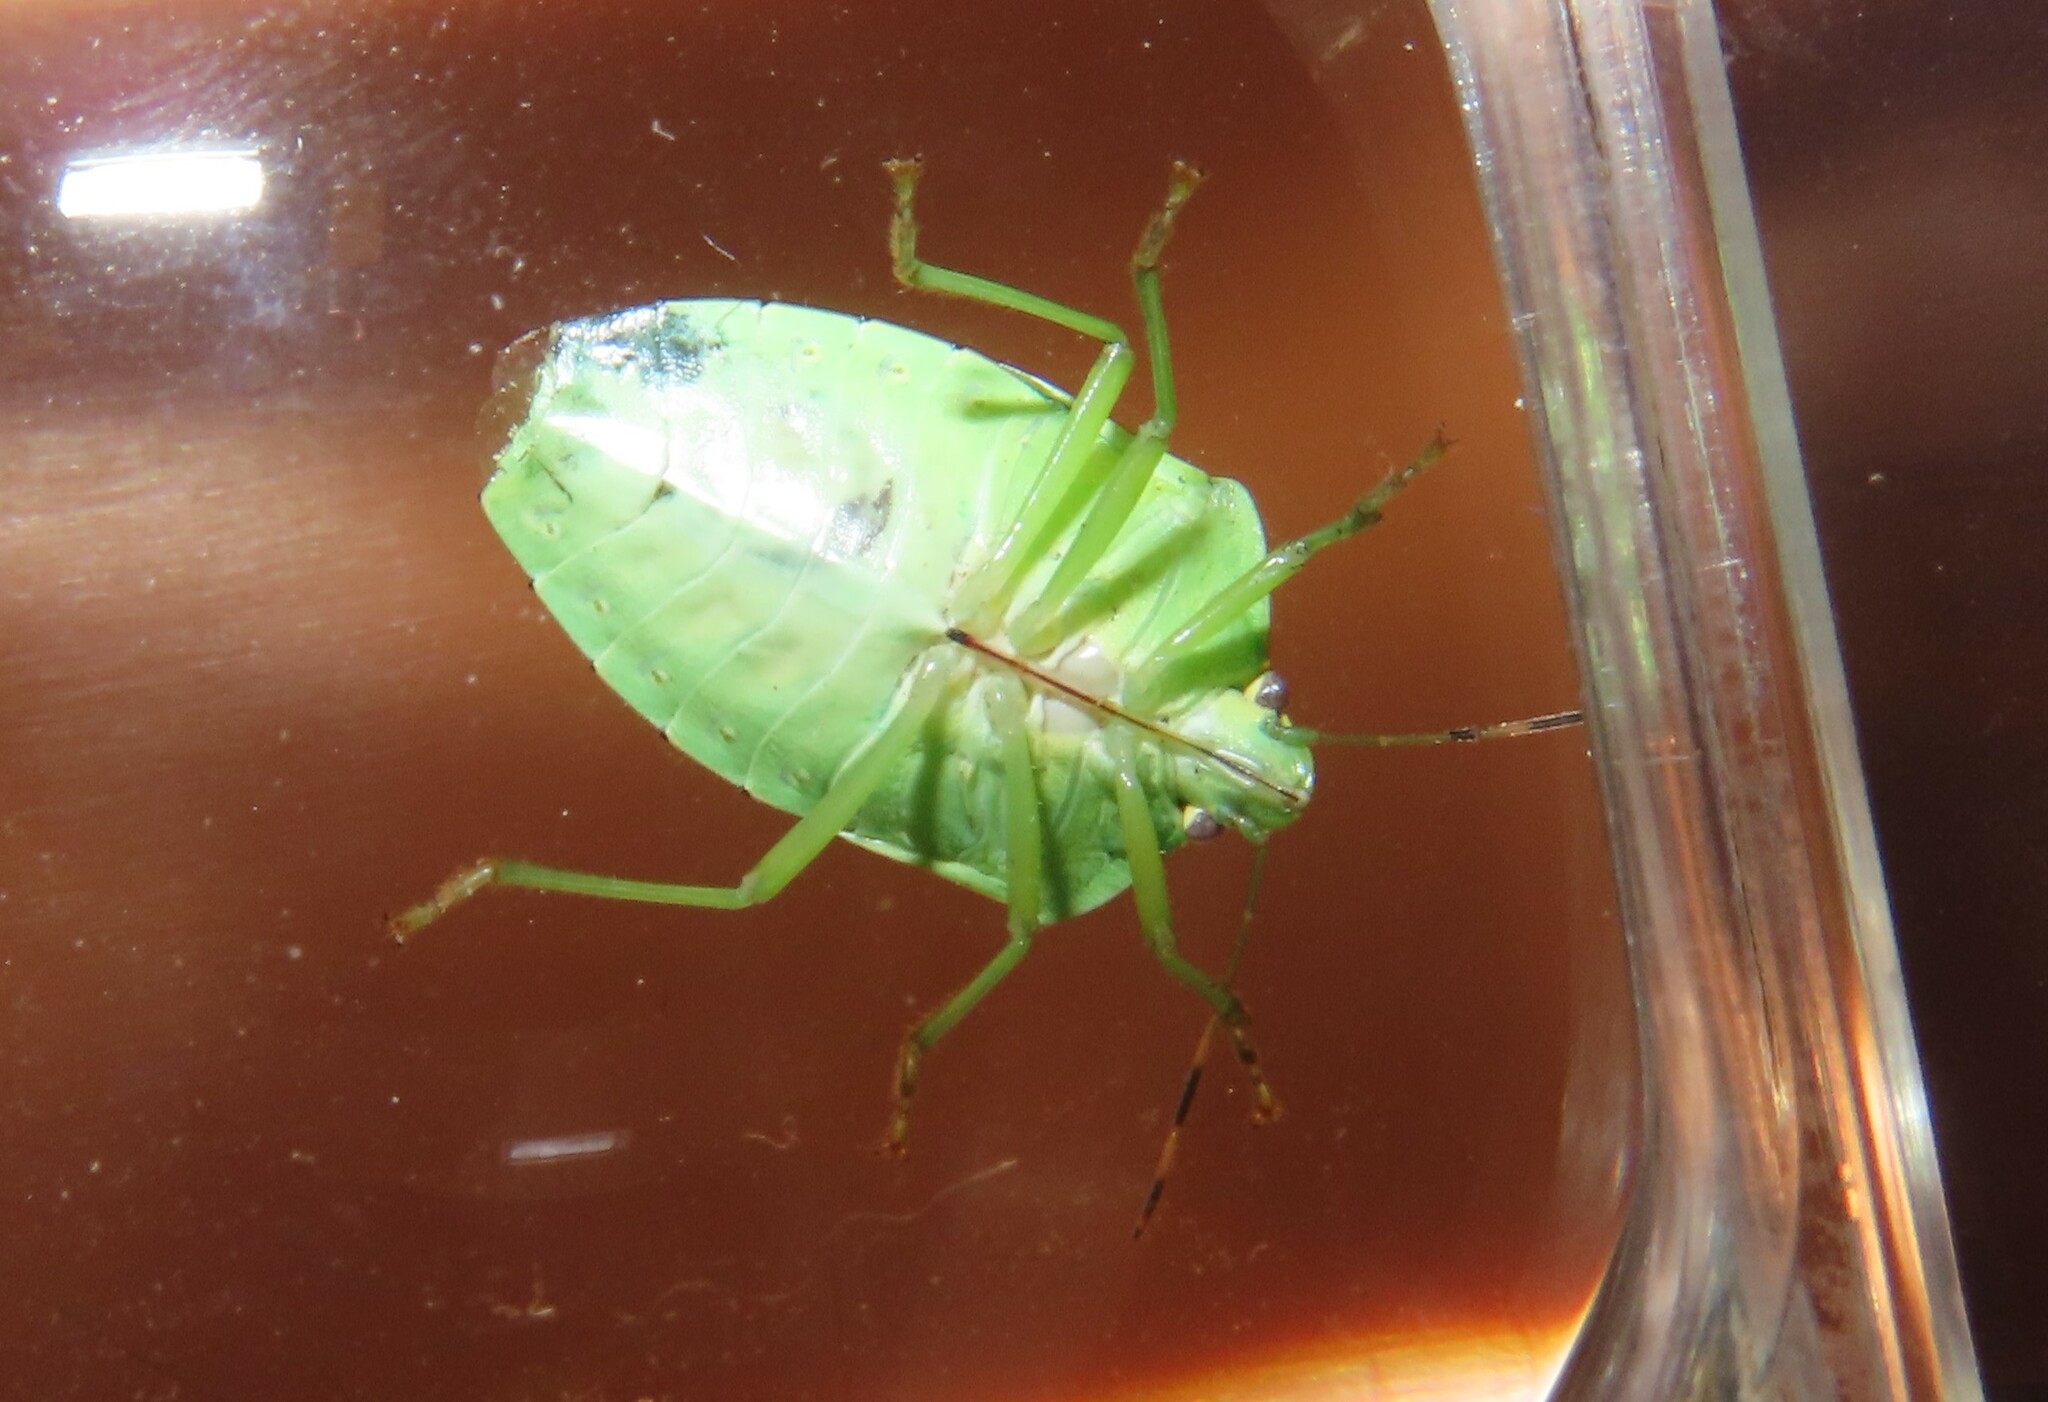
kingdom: Animalia
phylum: Arthropoda
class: Insecta
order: Hemiptera
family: Pentatomidae
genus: Chinavia
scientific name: Chinavia hilaris
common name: Green stink bug
